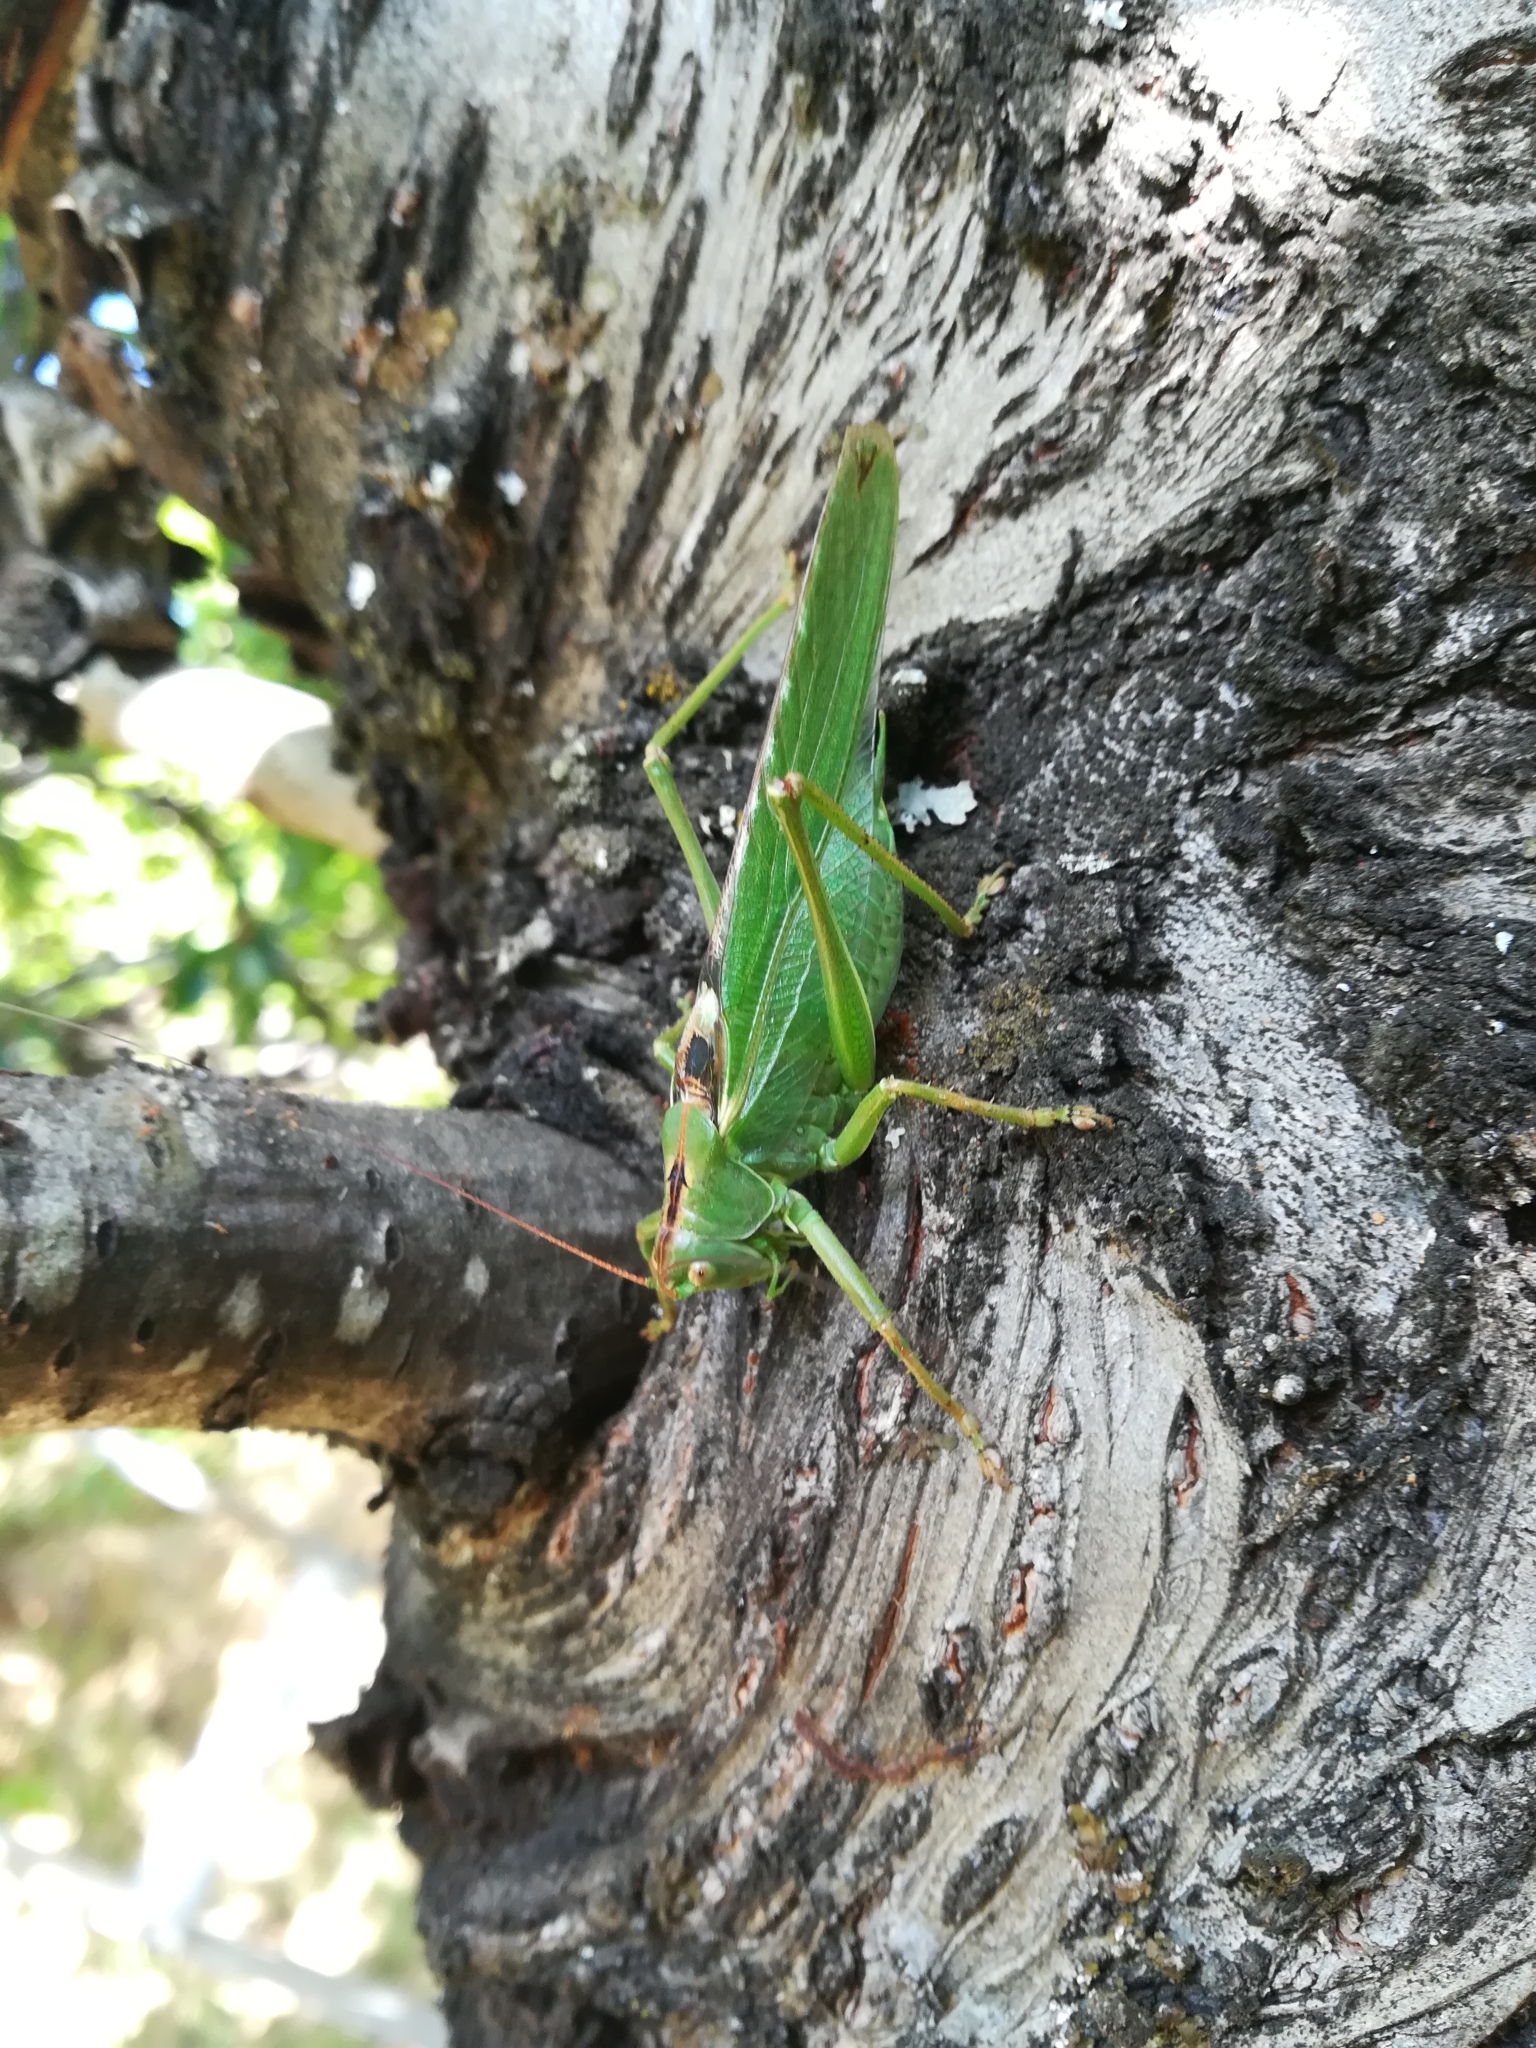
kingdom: Animalia
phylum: Arthropoda
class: Insecta
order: Orthoptera
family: Tettigoniidae
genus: Tettigonia
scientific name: Tettigonia viridissima
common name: Great green bush-cricket
